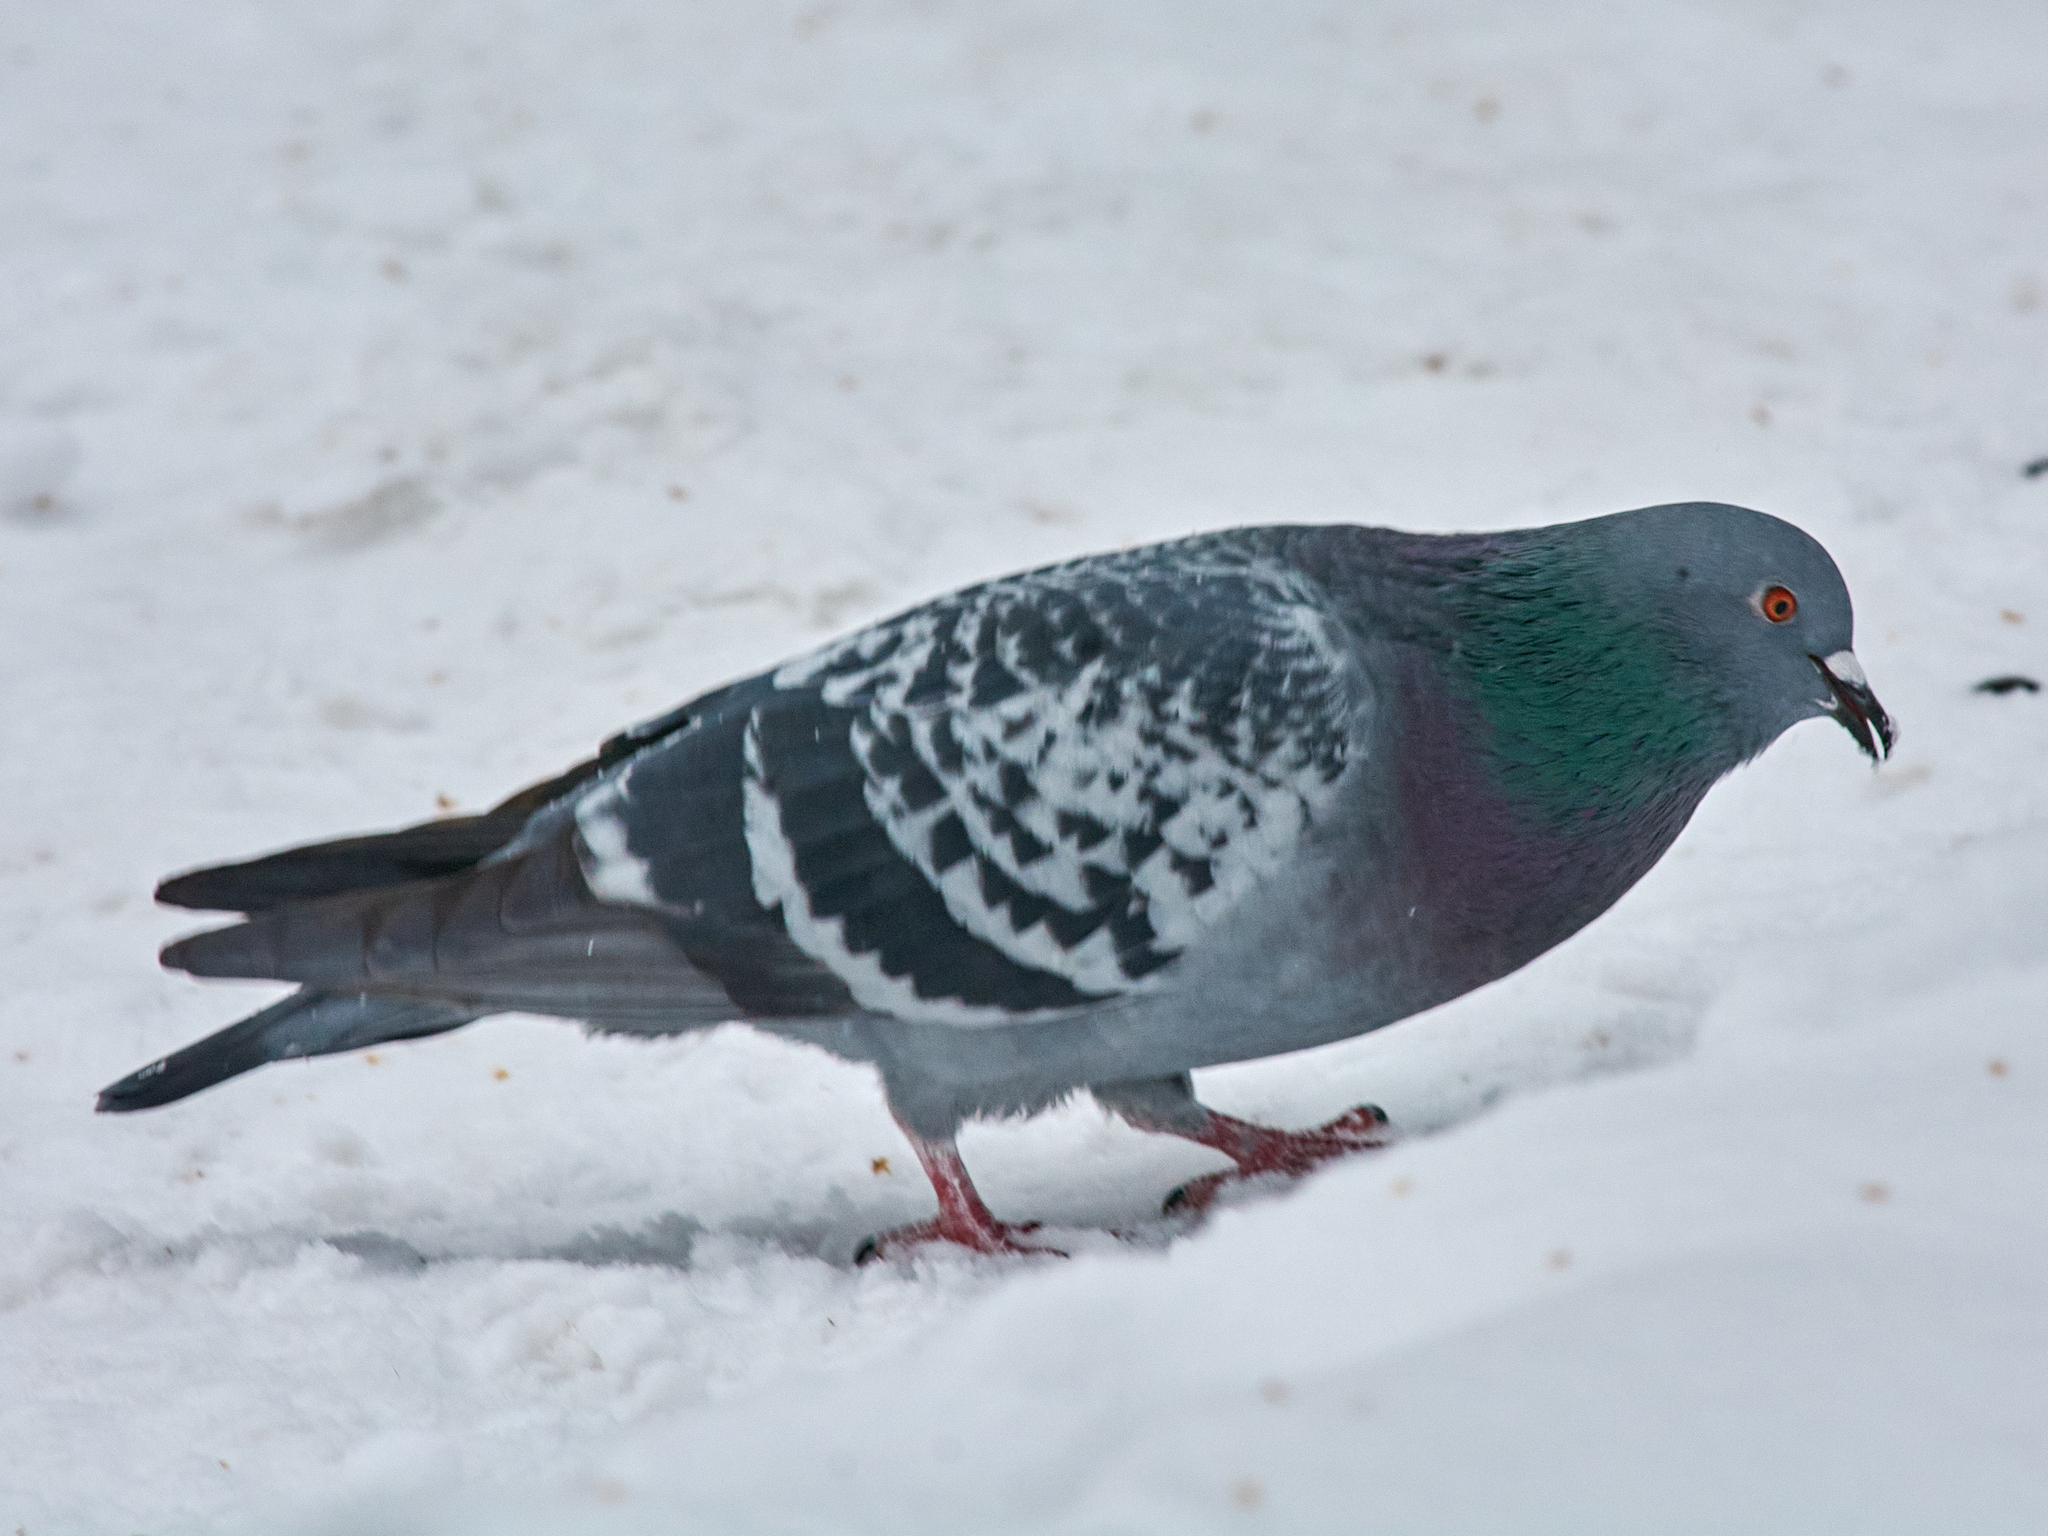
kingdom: Animalia
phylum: Chordata
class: Aves
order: Columbiformes
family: Columbidae
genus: Columba
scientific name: Columba livia
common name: Rock pigeon
